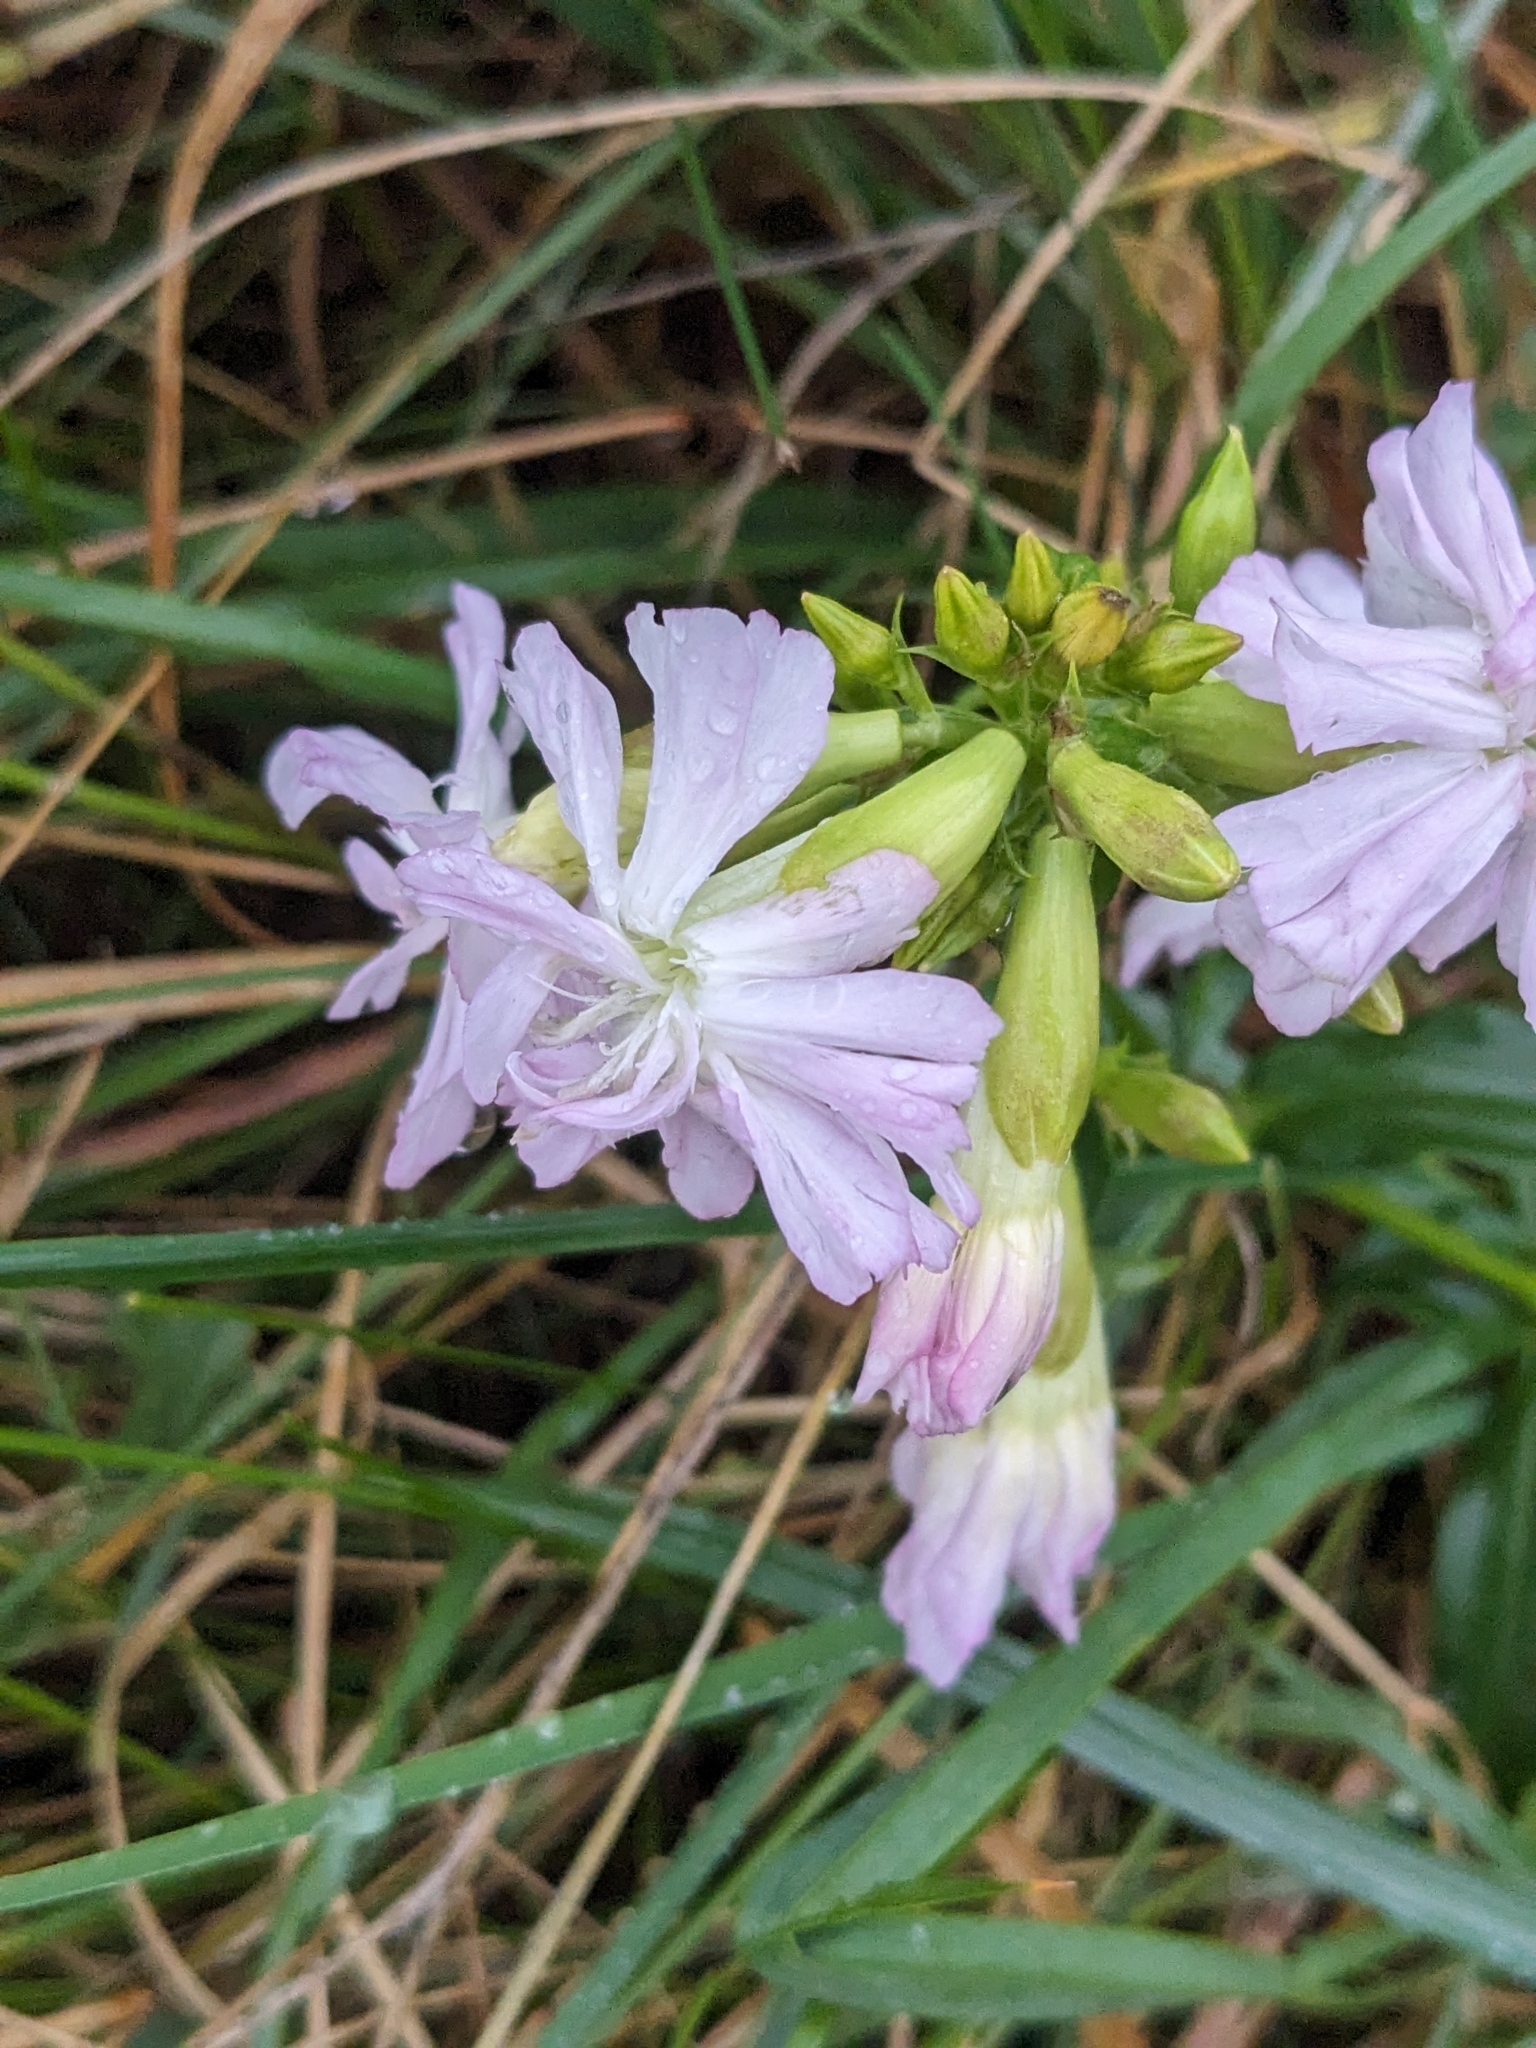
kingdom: Plantae
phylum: Tracheophyta
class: Magnoliopsida
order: Caryophyllales
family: Caryophyllaceae
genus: Saponaria
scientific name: Saponaria officinalis
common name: Soapwort
